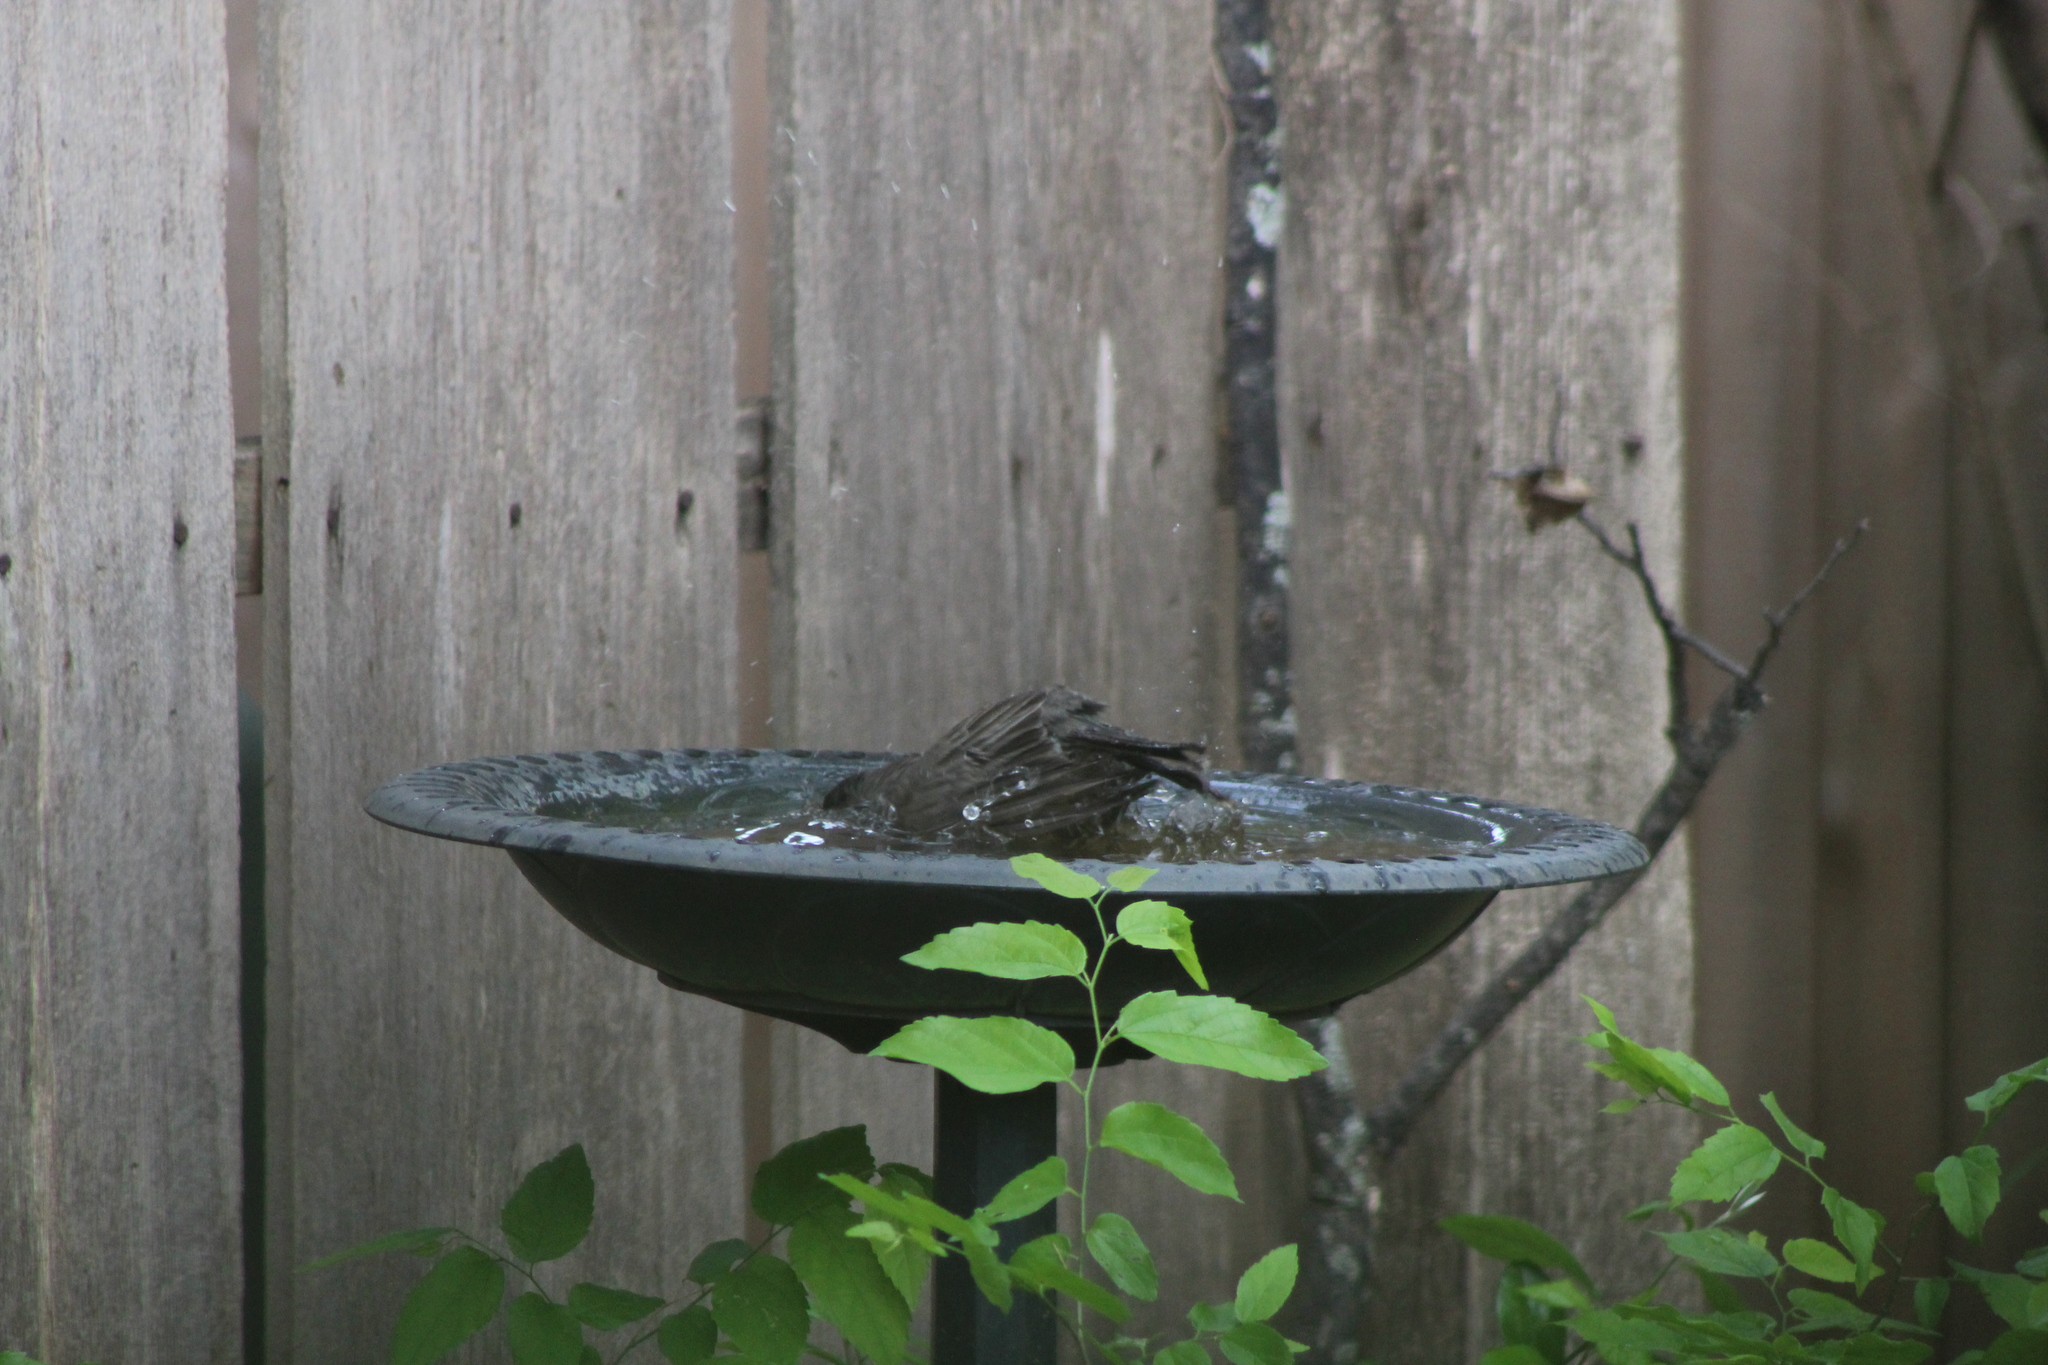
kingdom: Animalia
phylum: Chordata
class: Aves
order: Passeriformes
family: Turdidae
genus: Turdus
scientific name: Turdus migratorius
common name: American robin
